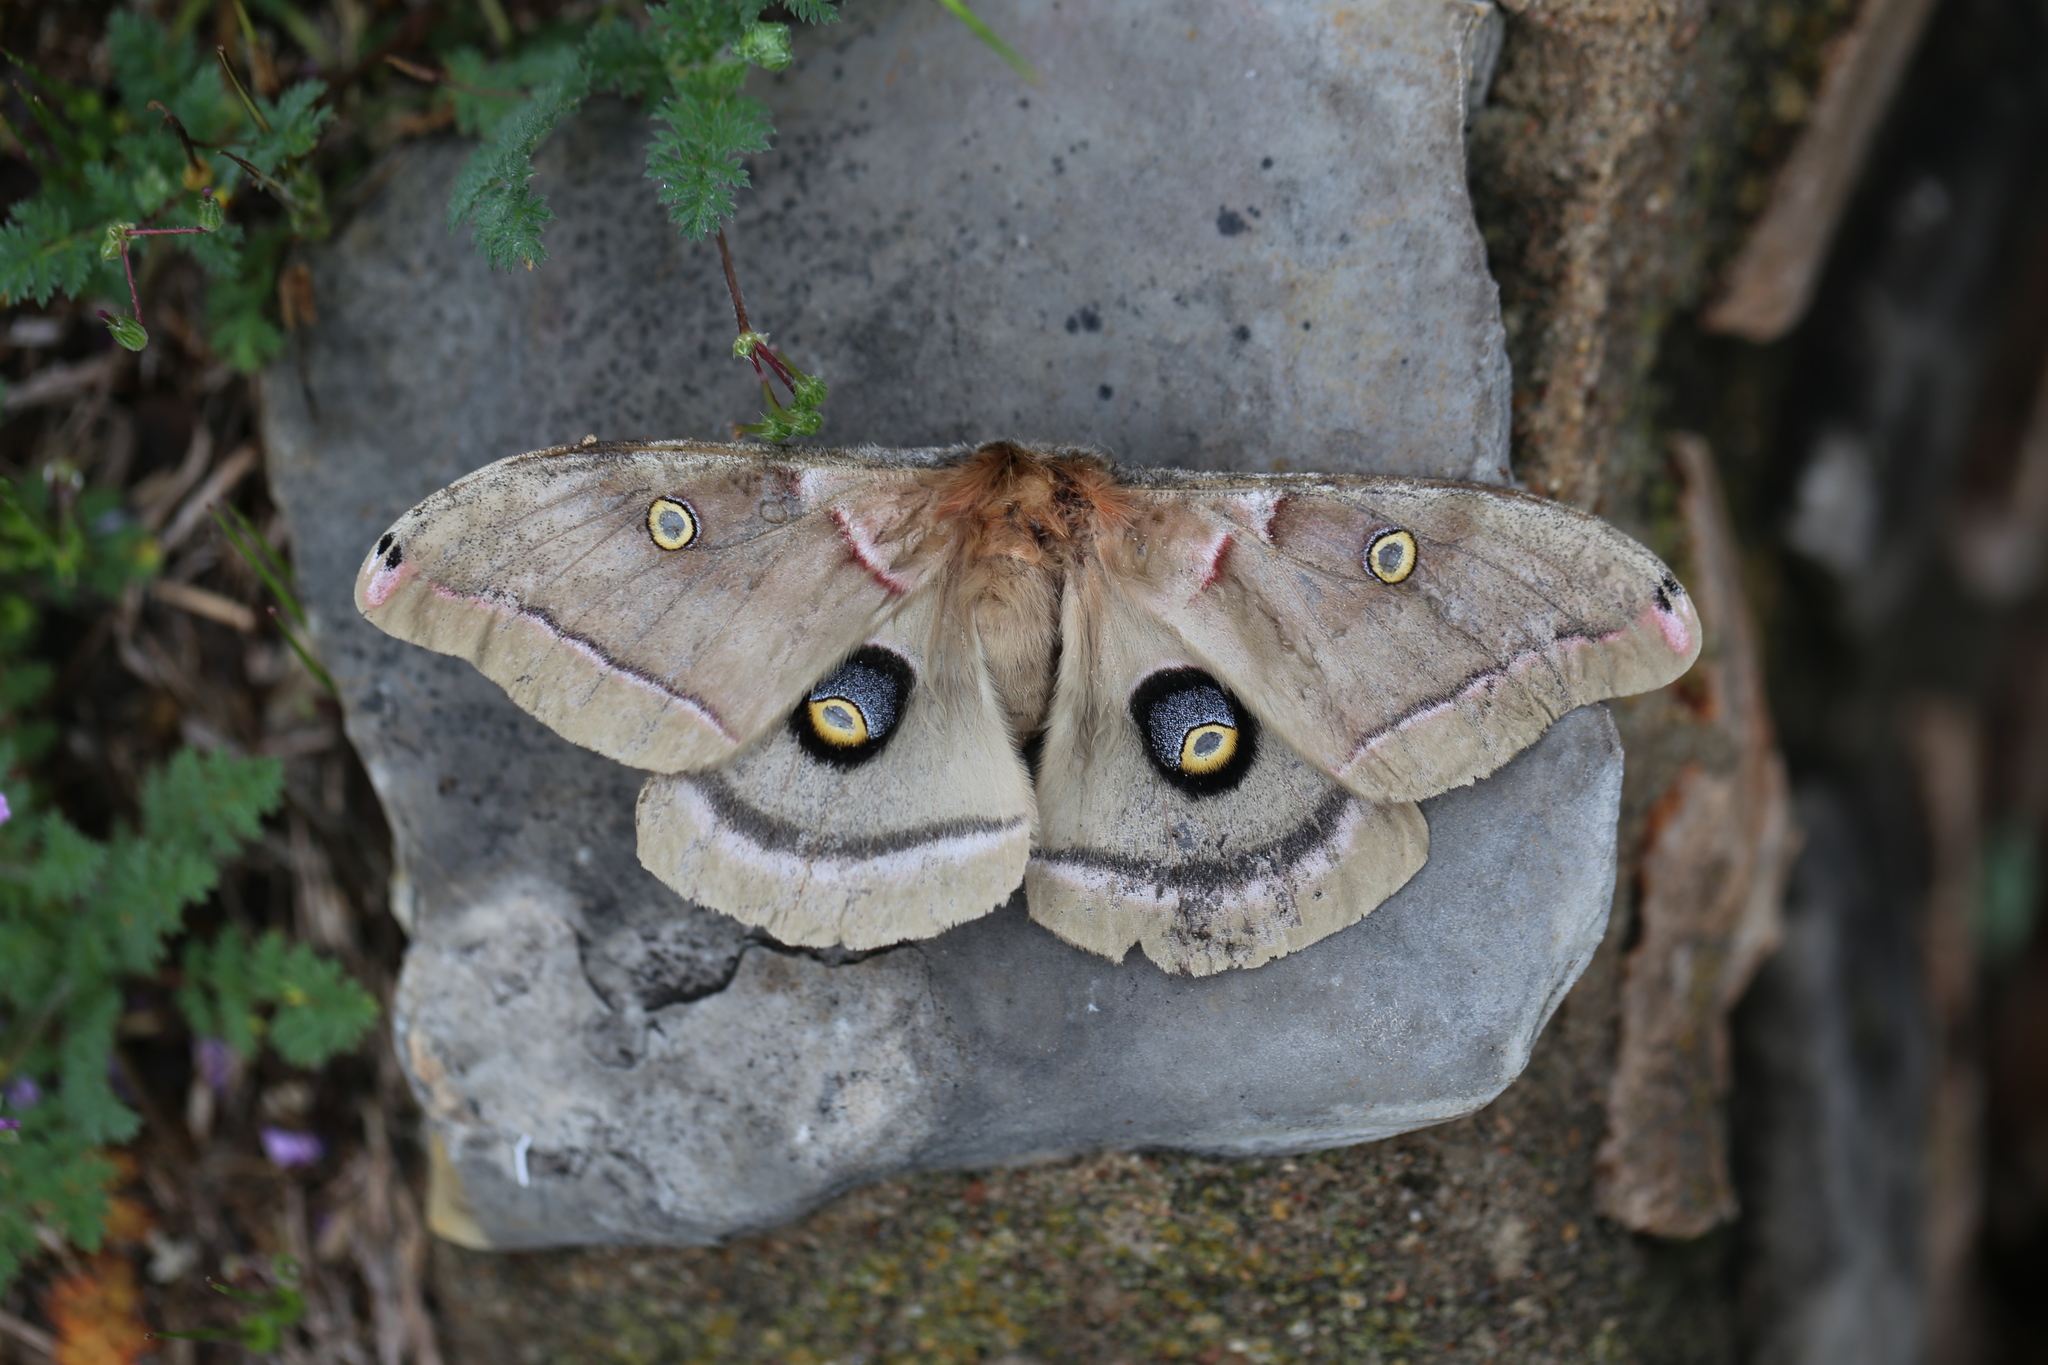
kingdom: Animalia
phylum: Arthropoda
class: Insecta
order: Lepidoptera
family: Saturniidae
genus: Antheraea
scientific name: Antheraea polyphemus
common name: Polyphemus moth
